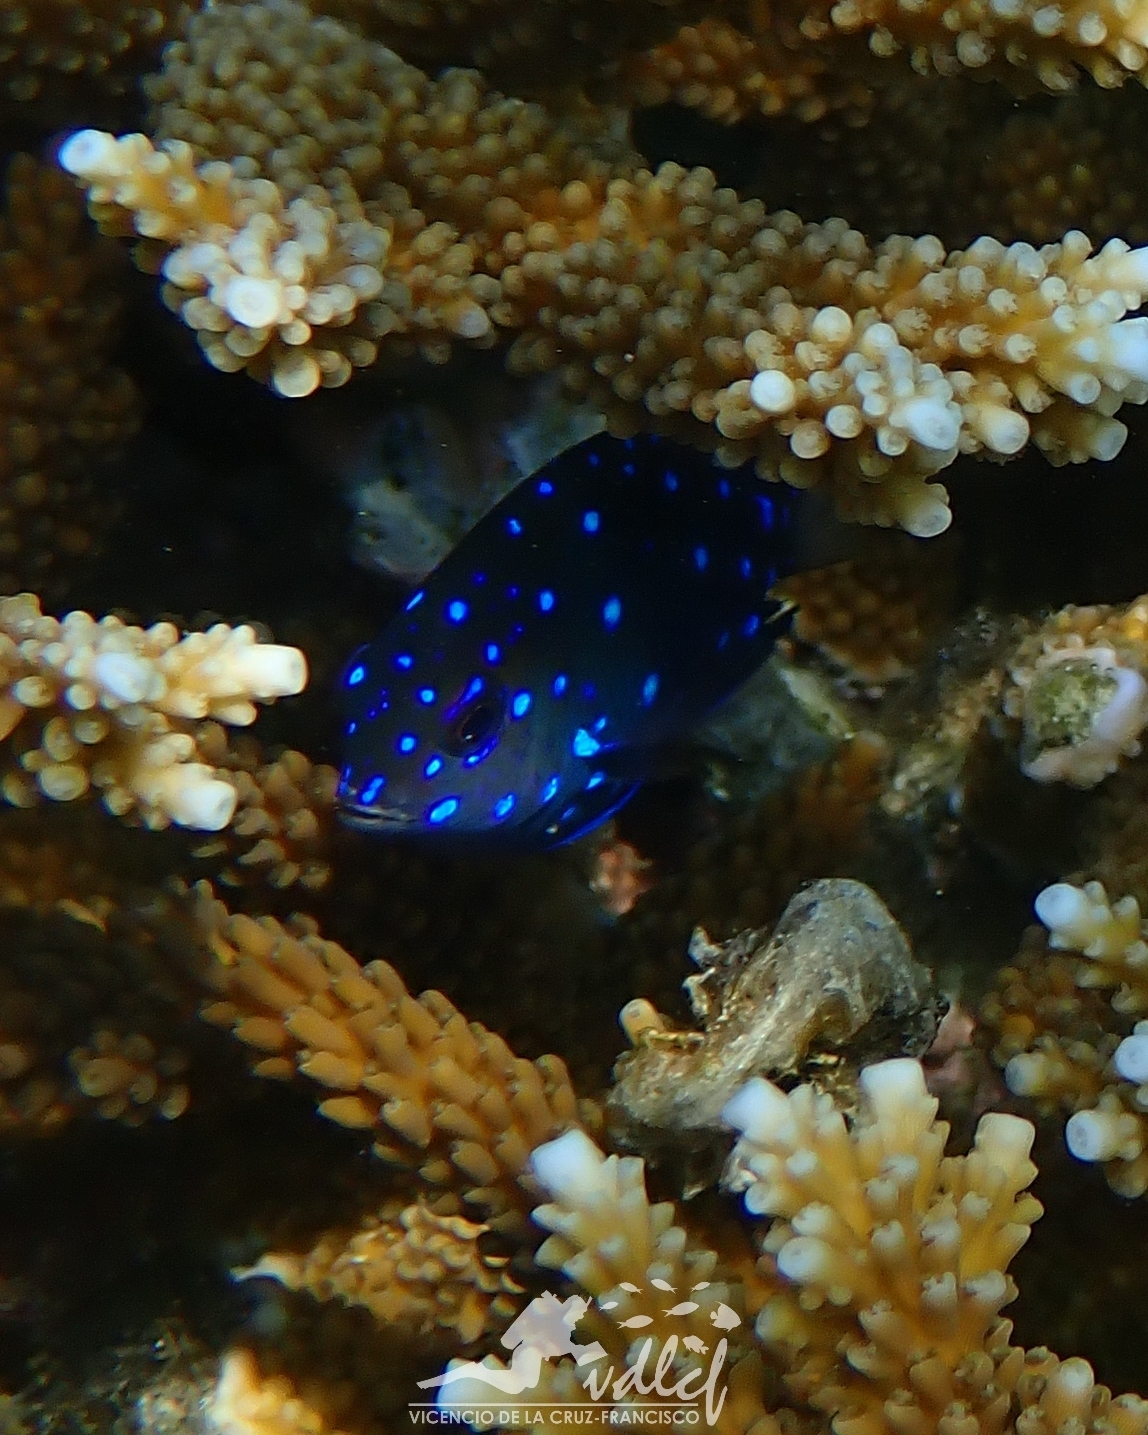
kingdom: Animalia
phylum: Chordata
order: Perciformes
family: Pomacentridae
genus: Microspathodon
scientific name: Microspathodon chrysurus
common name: Yellowtail damselfish
